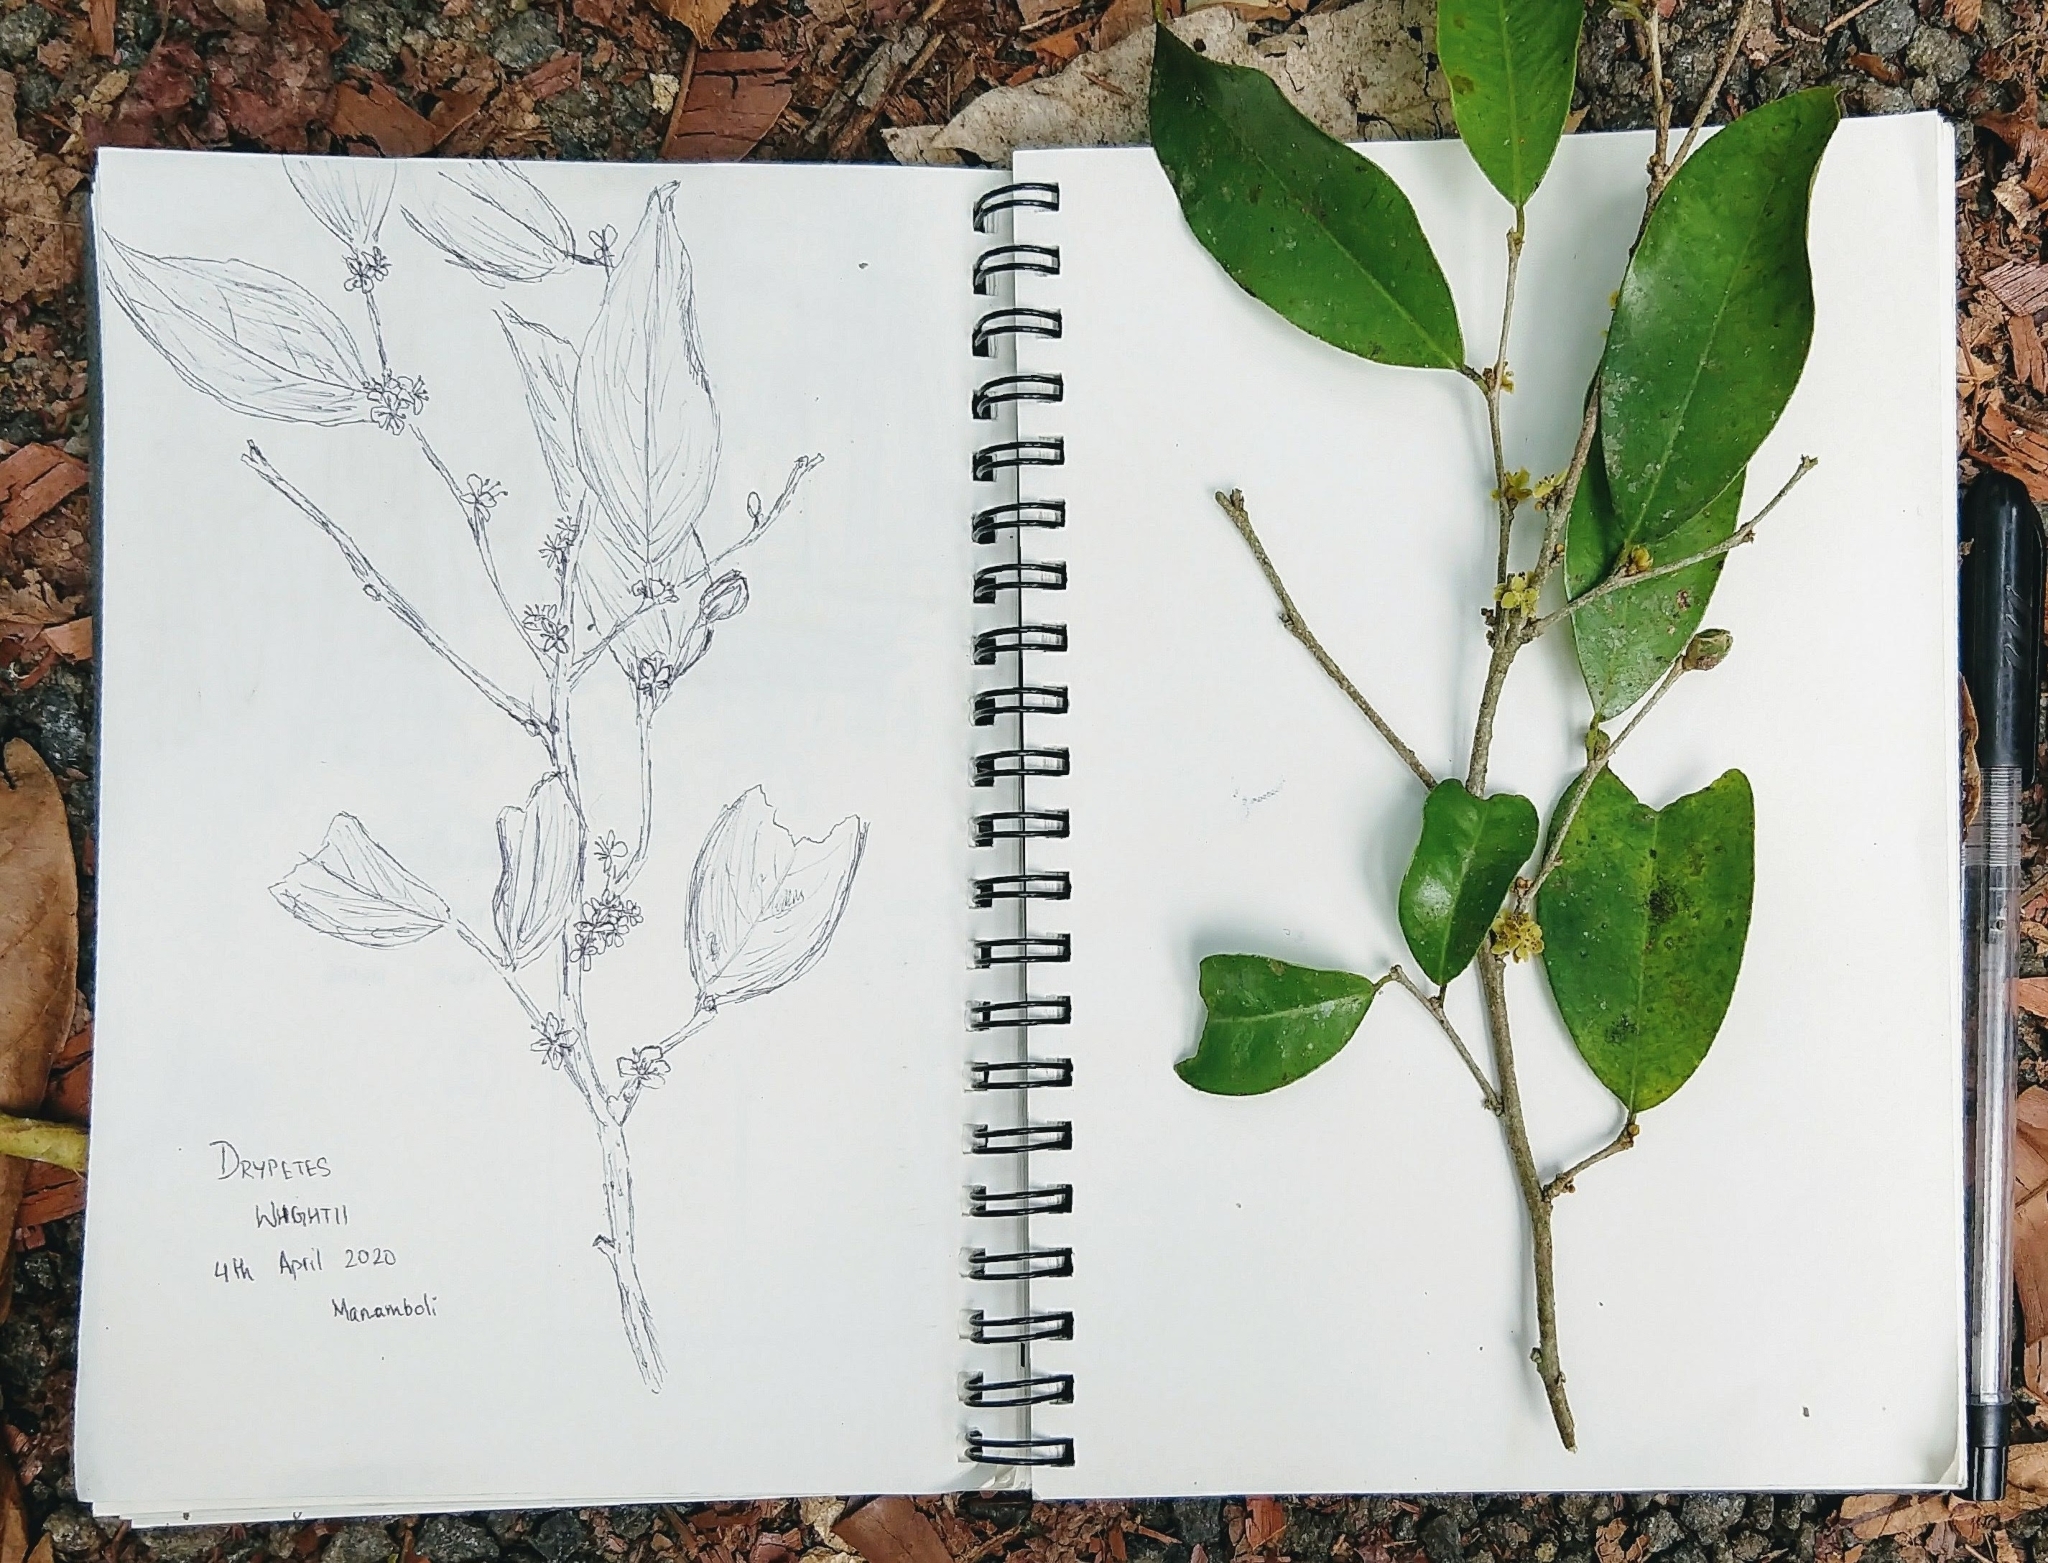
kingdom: Plantae
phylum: Tracheophyta
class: Magnoliopsida
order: Malpighiales
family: Putranjivaceae
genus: Drypetes
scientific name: Drypetes wightii
